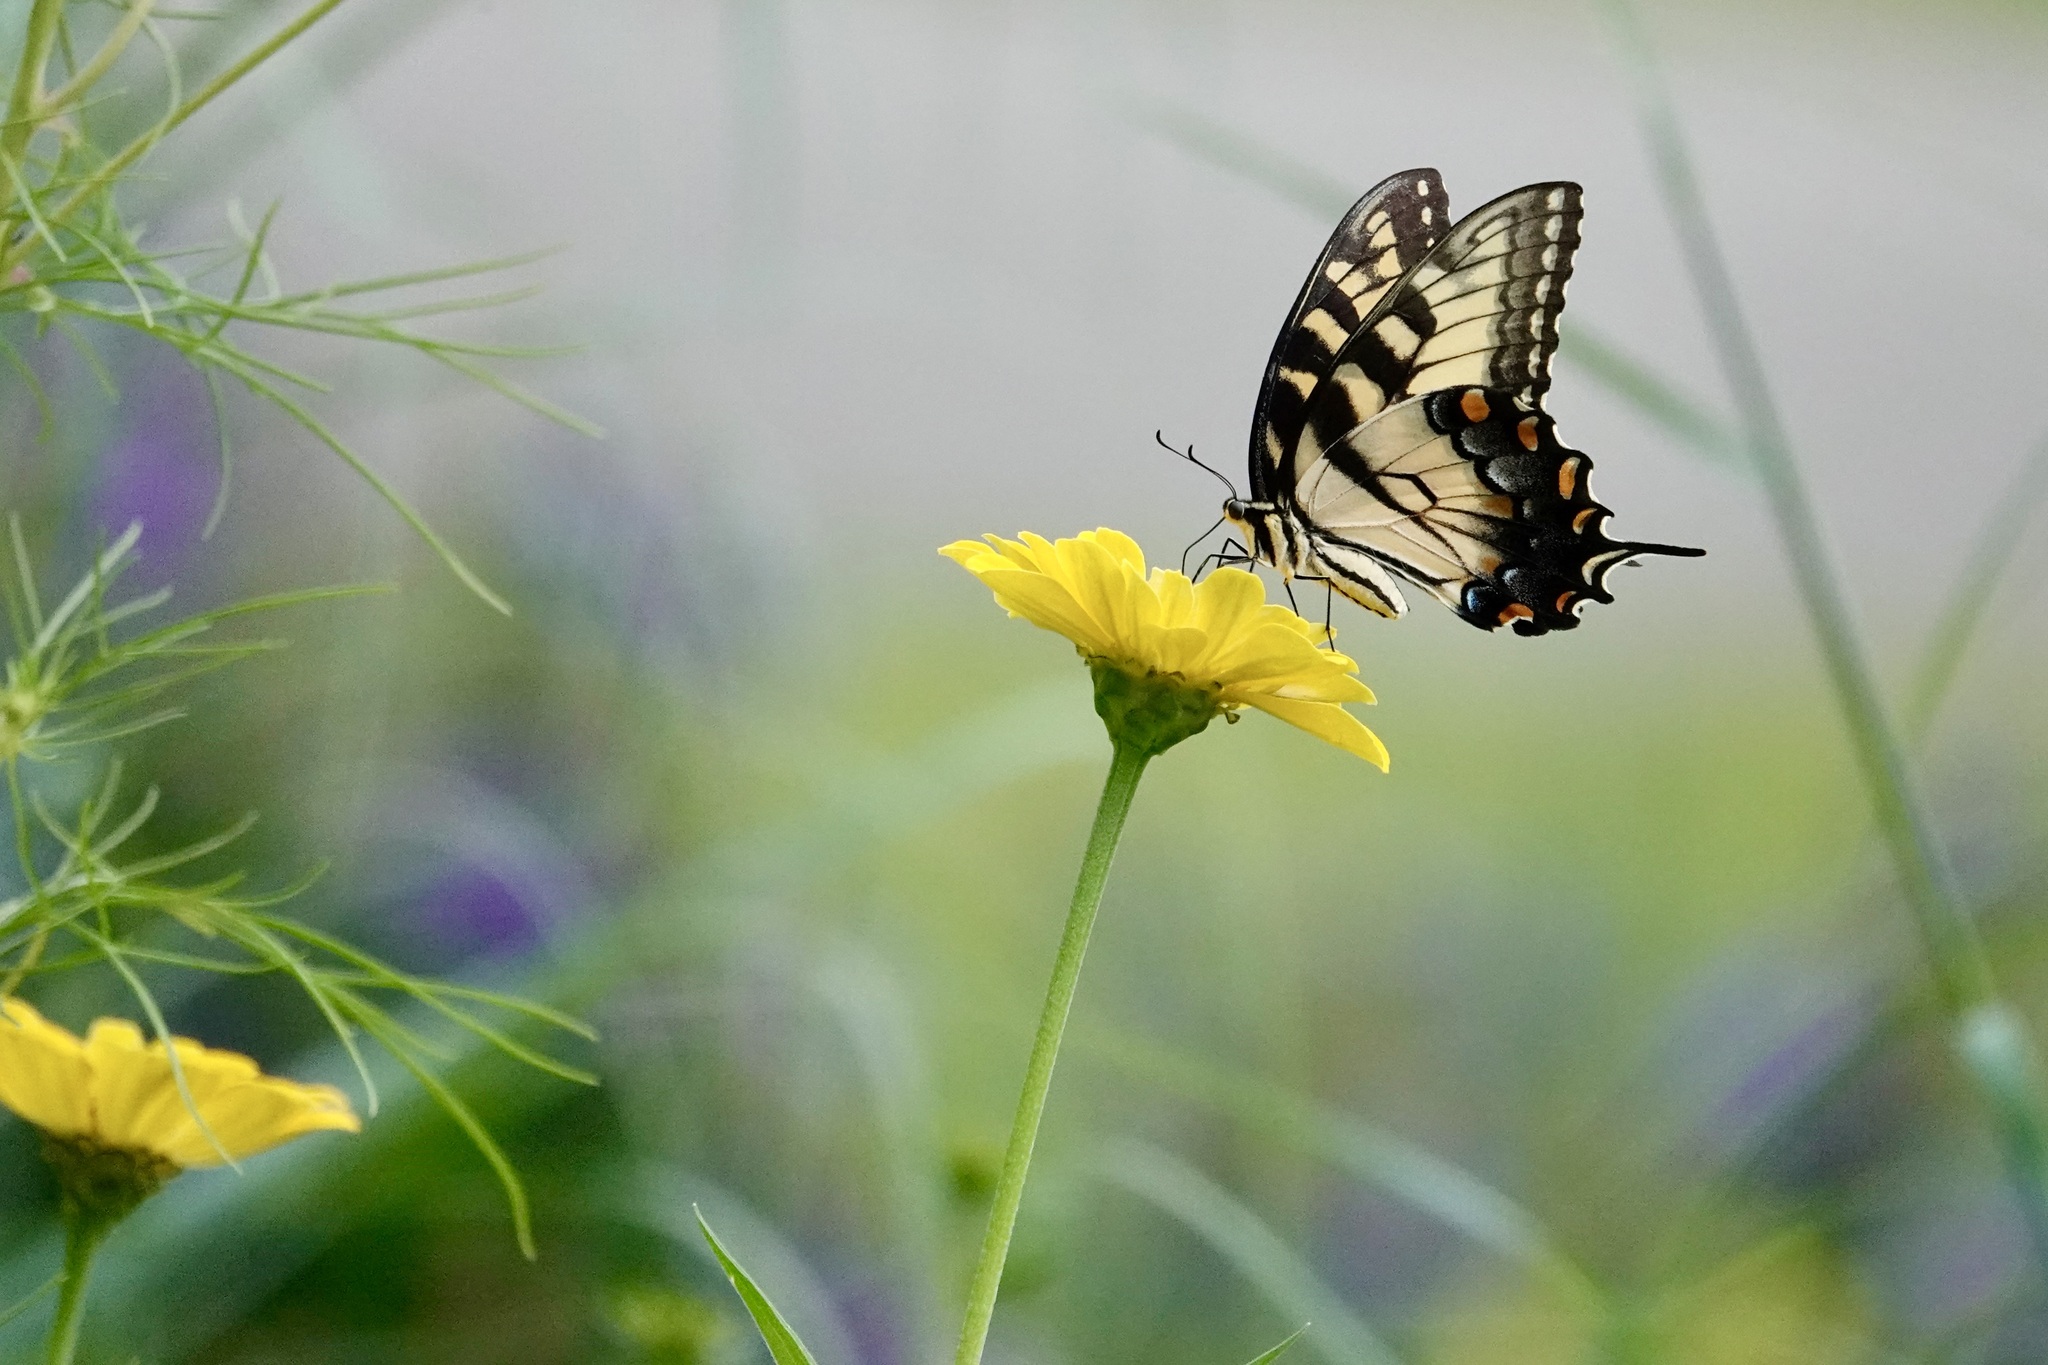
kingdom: Animalia
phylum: Arthropoda
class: Insecta
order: Lepidoptera
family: Papilionidae
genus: Papilio
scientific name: Papilio glaucus
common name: Tiger swallowtail
